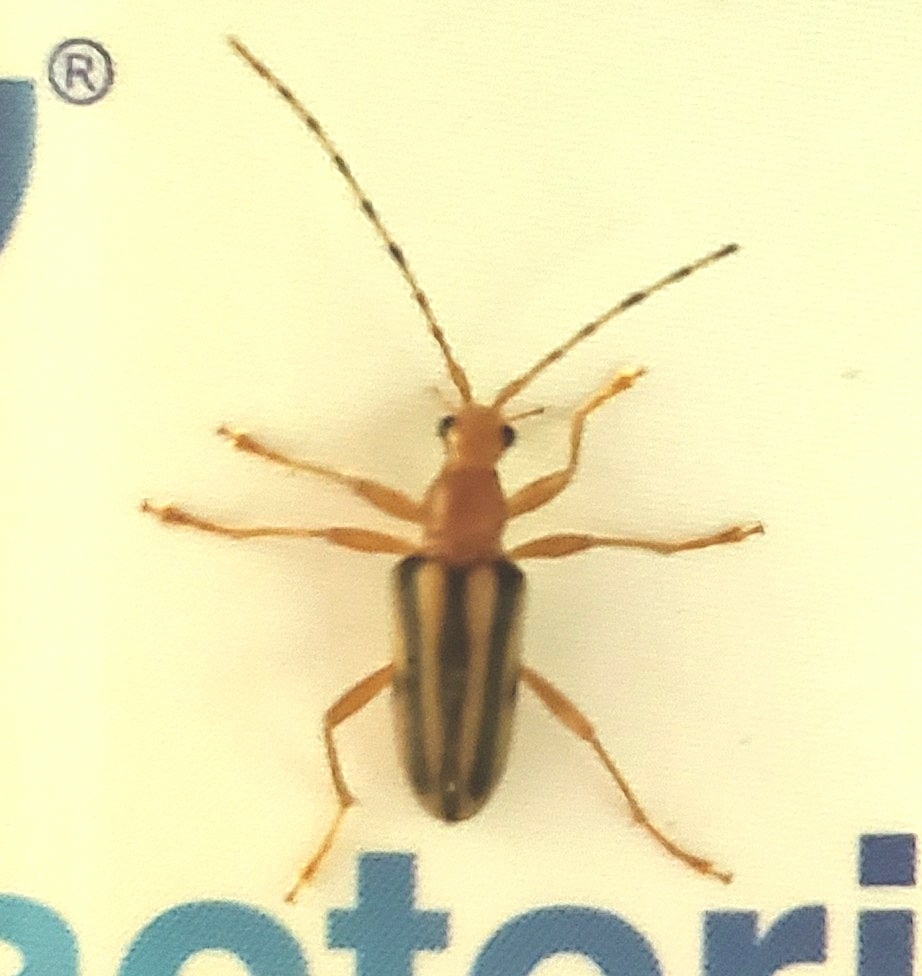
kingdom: Animalia
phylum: Arthropoda
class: Insecta
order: Coleoptera
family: Cerambycidae
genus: Metacmaeops
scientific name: Metacmaeops vittata
